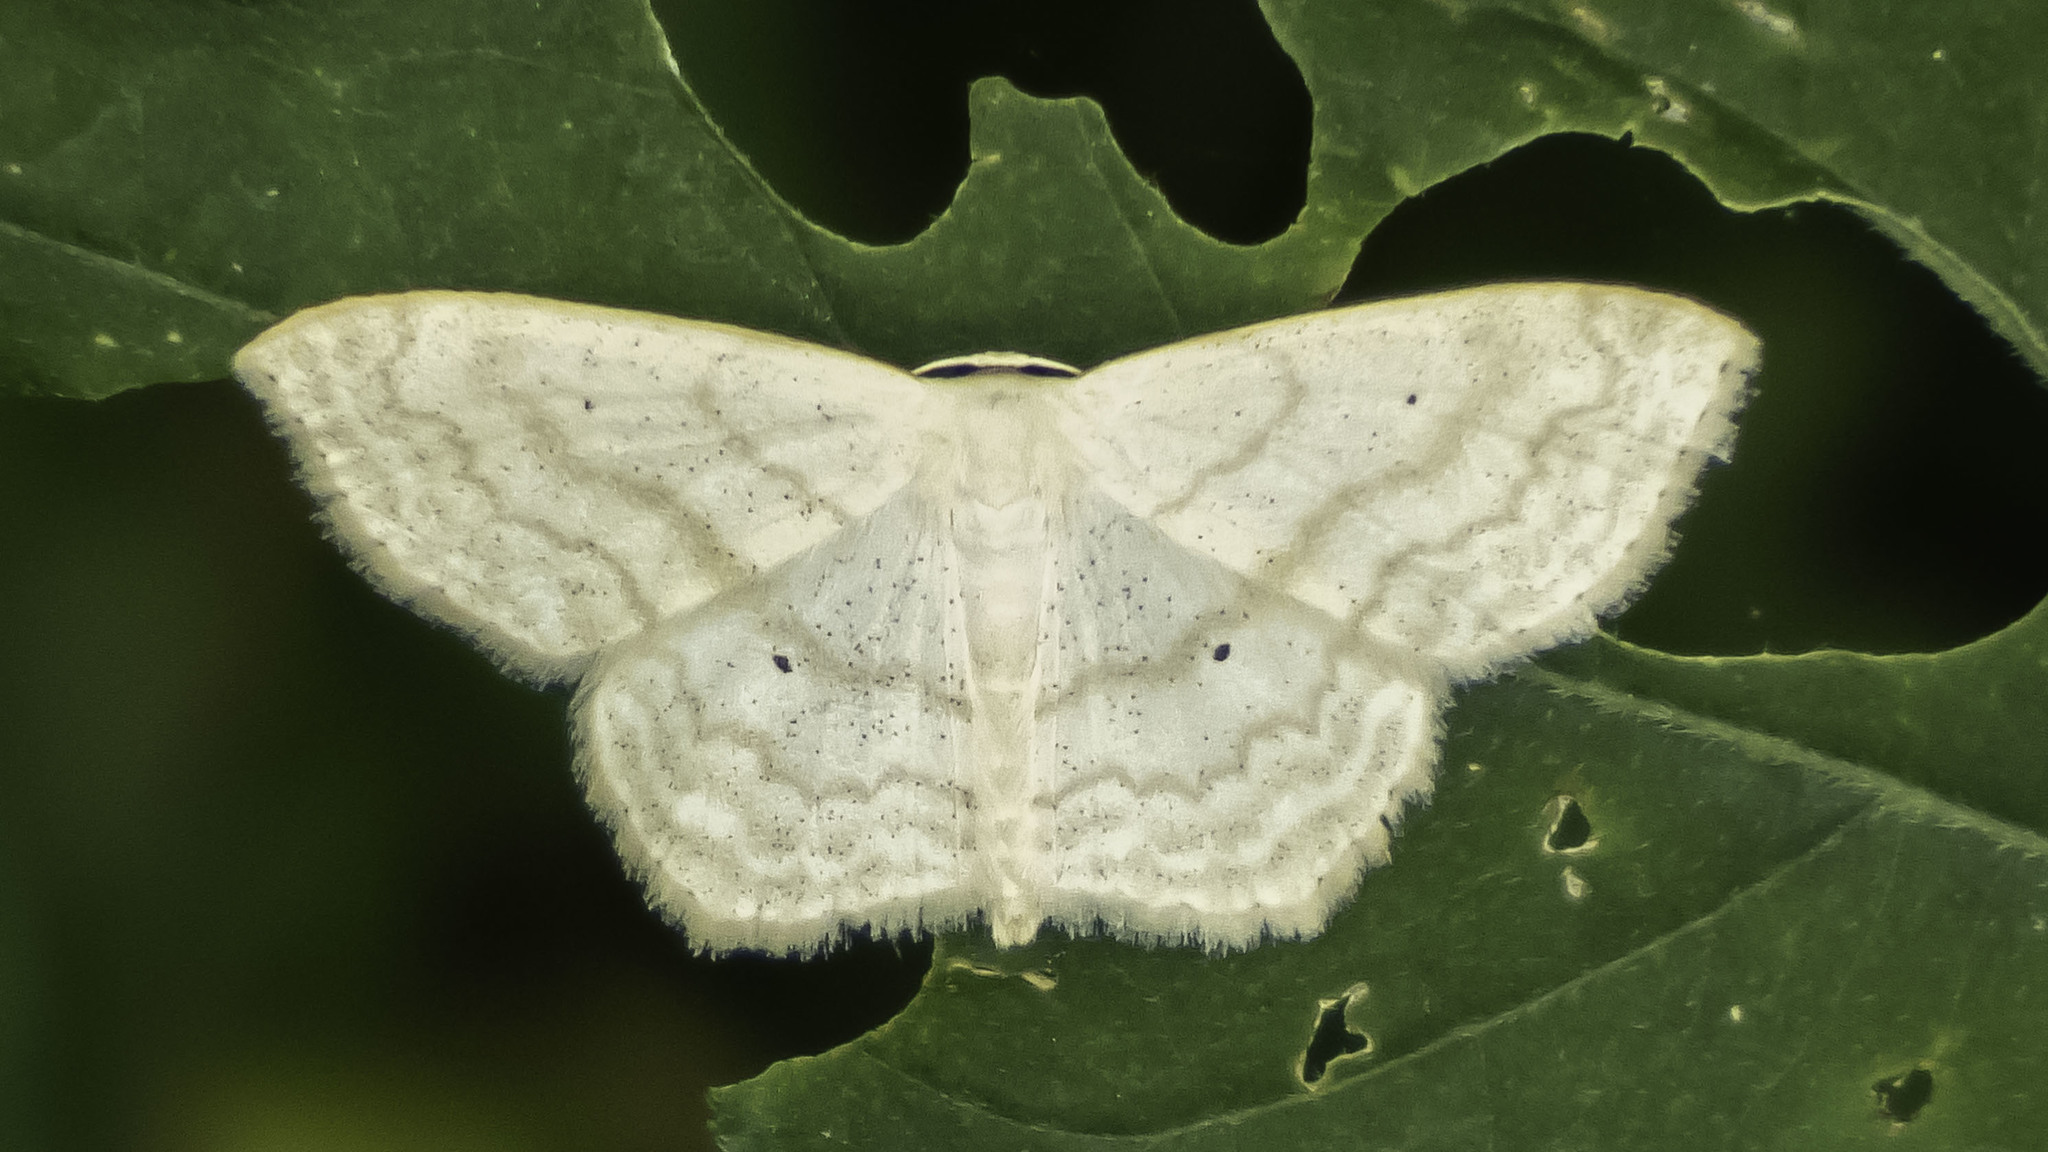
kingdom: Animalia
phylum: Arthropoda
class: Insecta
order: Lepidoptera
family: Geometridae
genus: Scopula
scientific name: Scopula limboundata
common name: Large lace border
